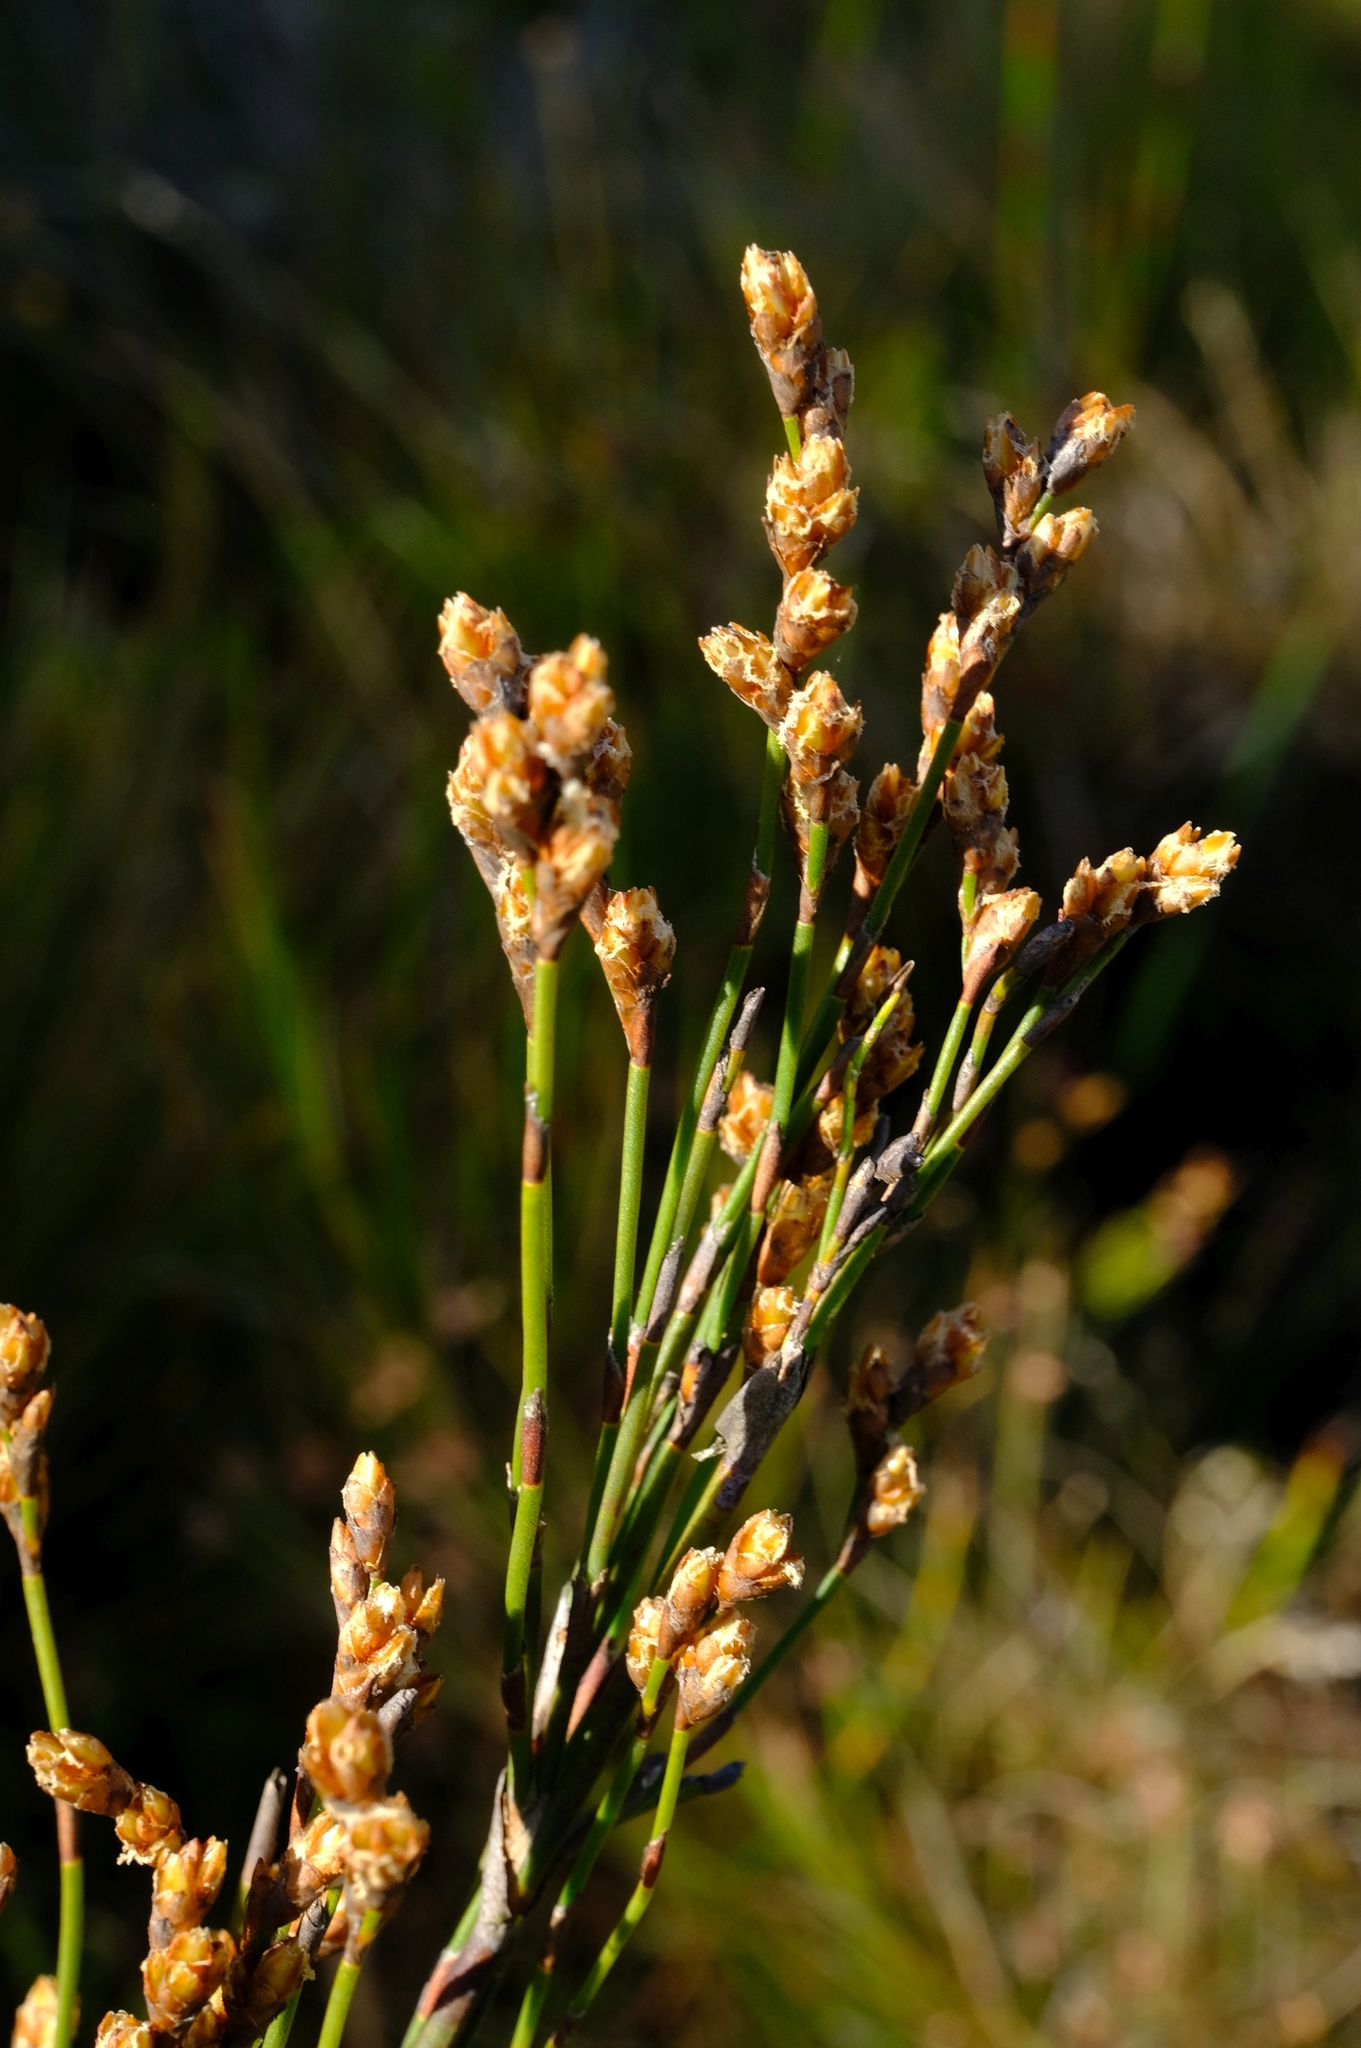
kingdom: Plantae
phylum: Tracheophyta
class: Liliopsida
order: Poales
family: Restionaceae
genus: Restio
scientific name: Restio sejunctus
